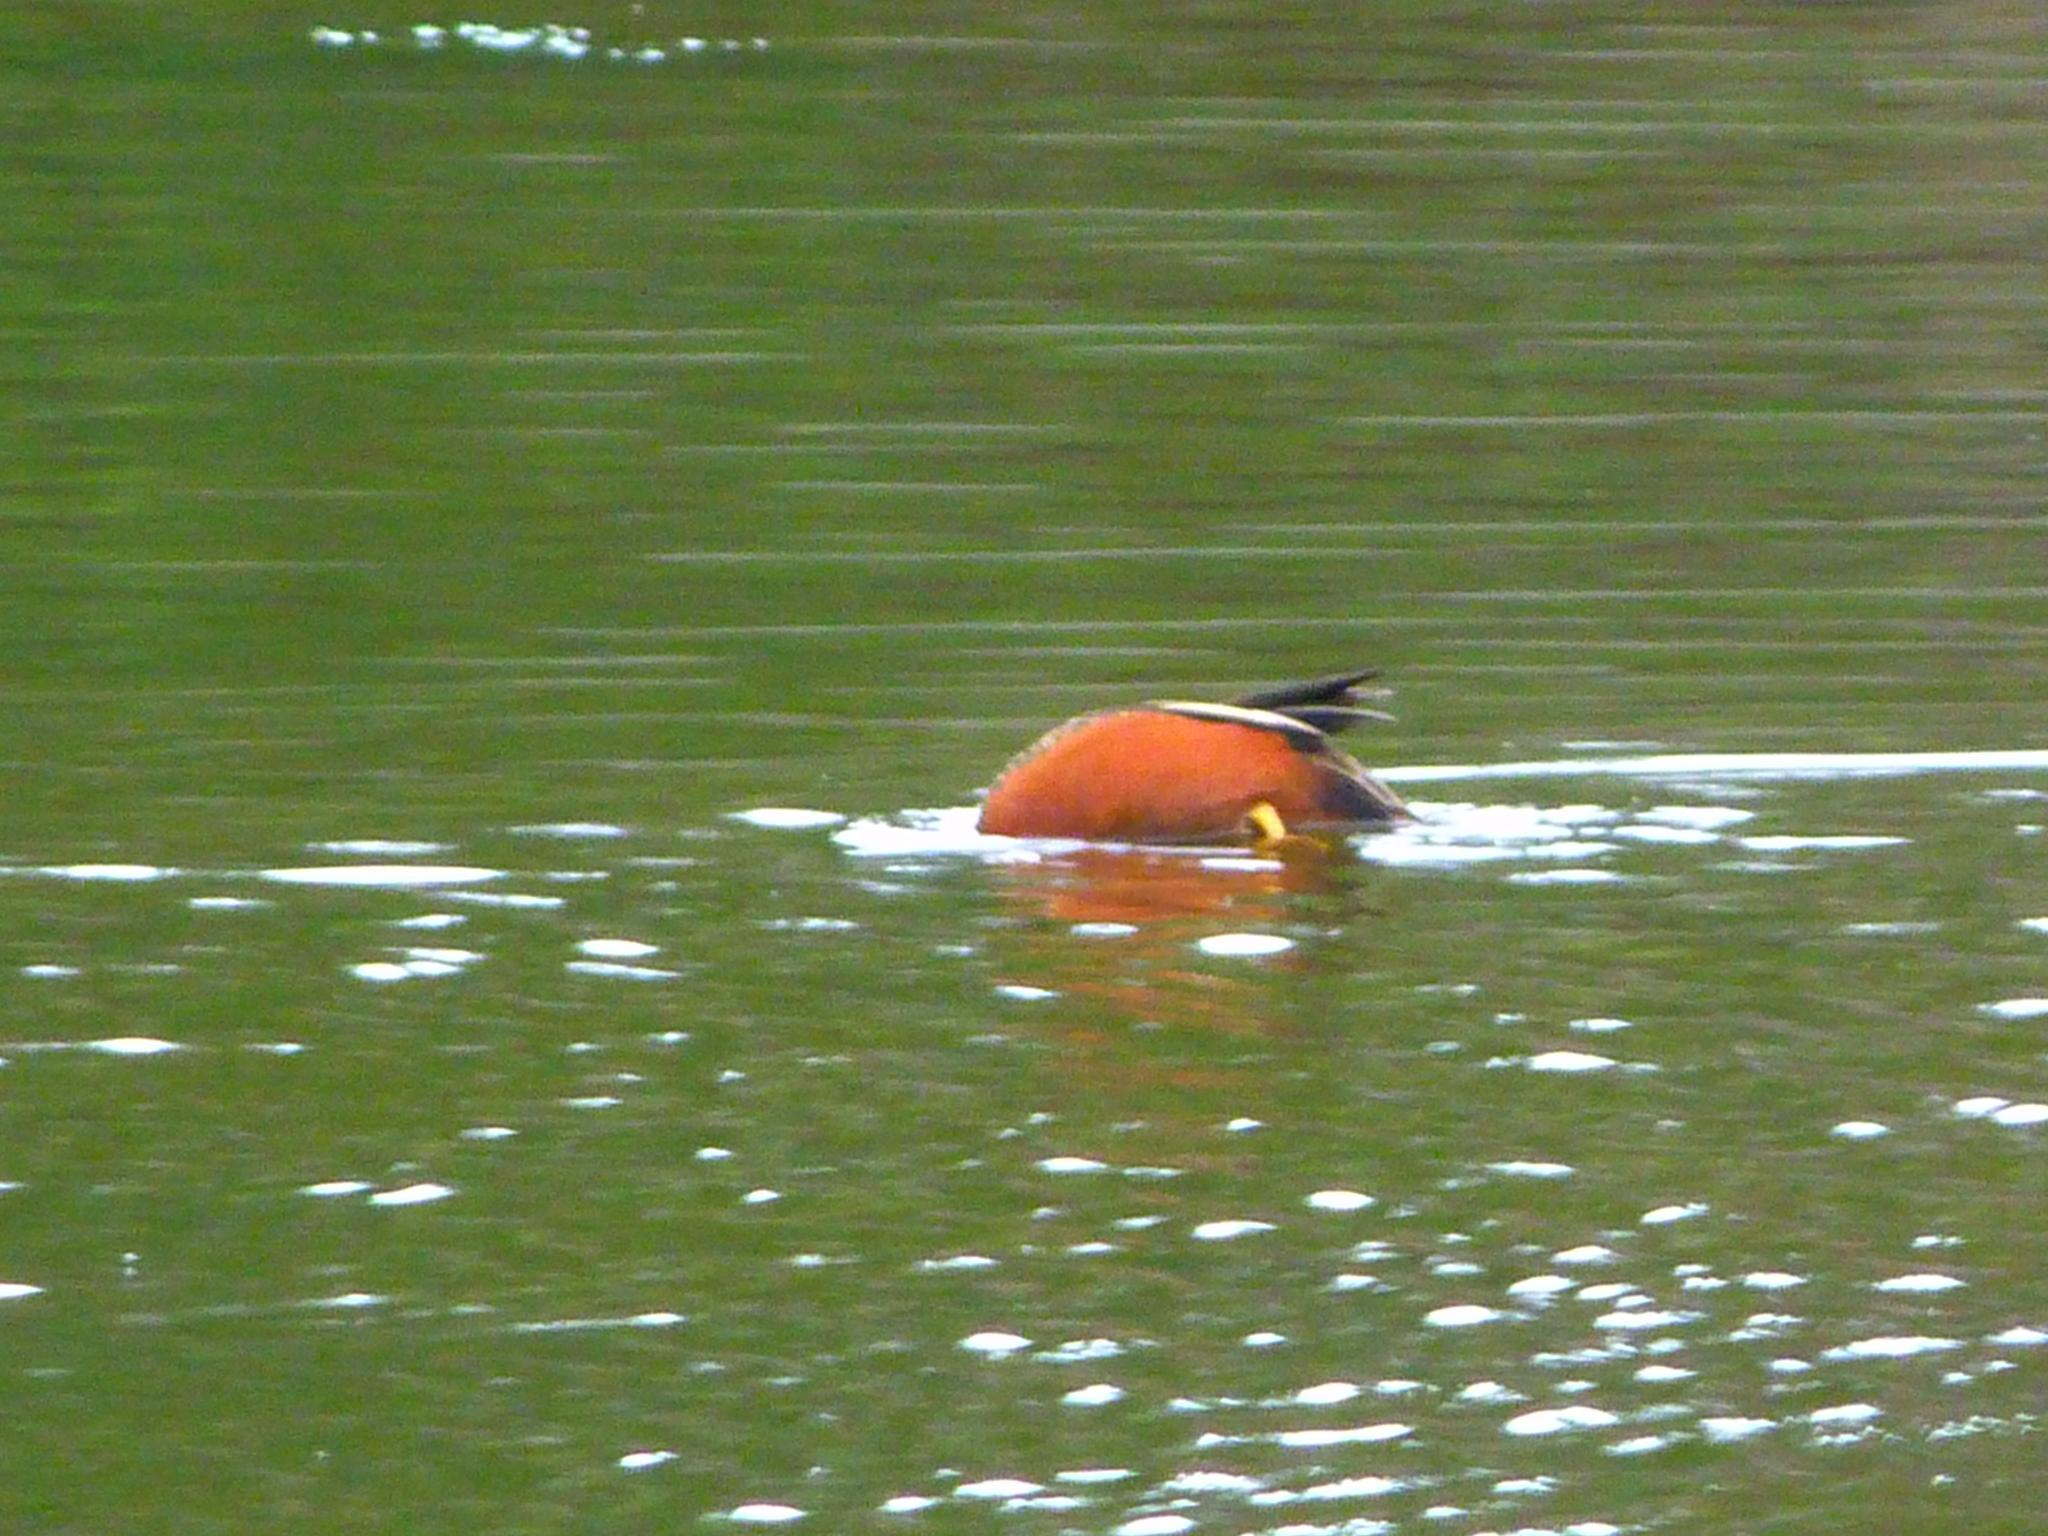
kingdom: Animalia
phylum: Chordata
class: Aves
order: Anseriformes
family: Anatidae
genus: Spatula
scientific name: Spatula cyanoptera
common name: Cinnamon teal
